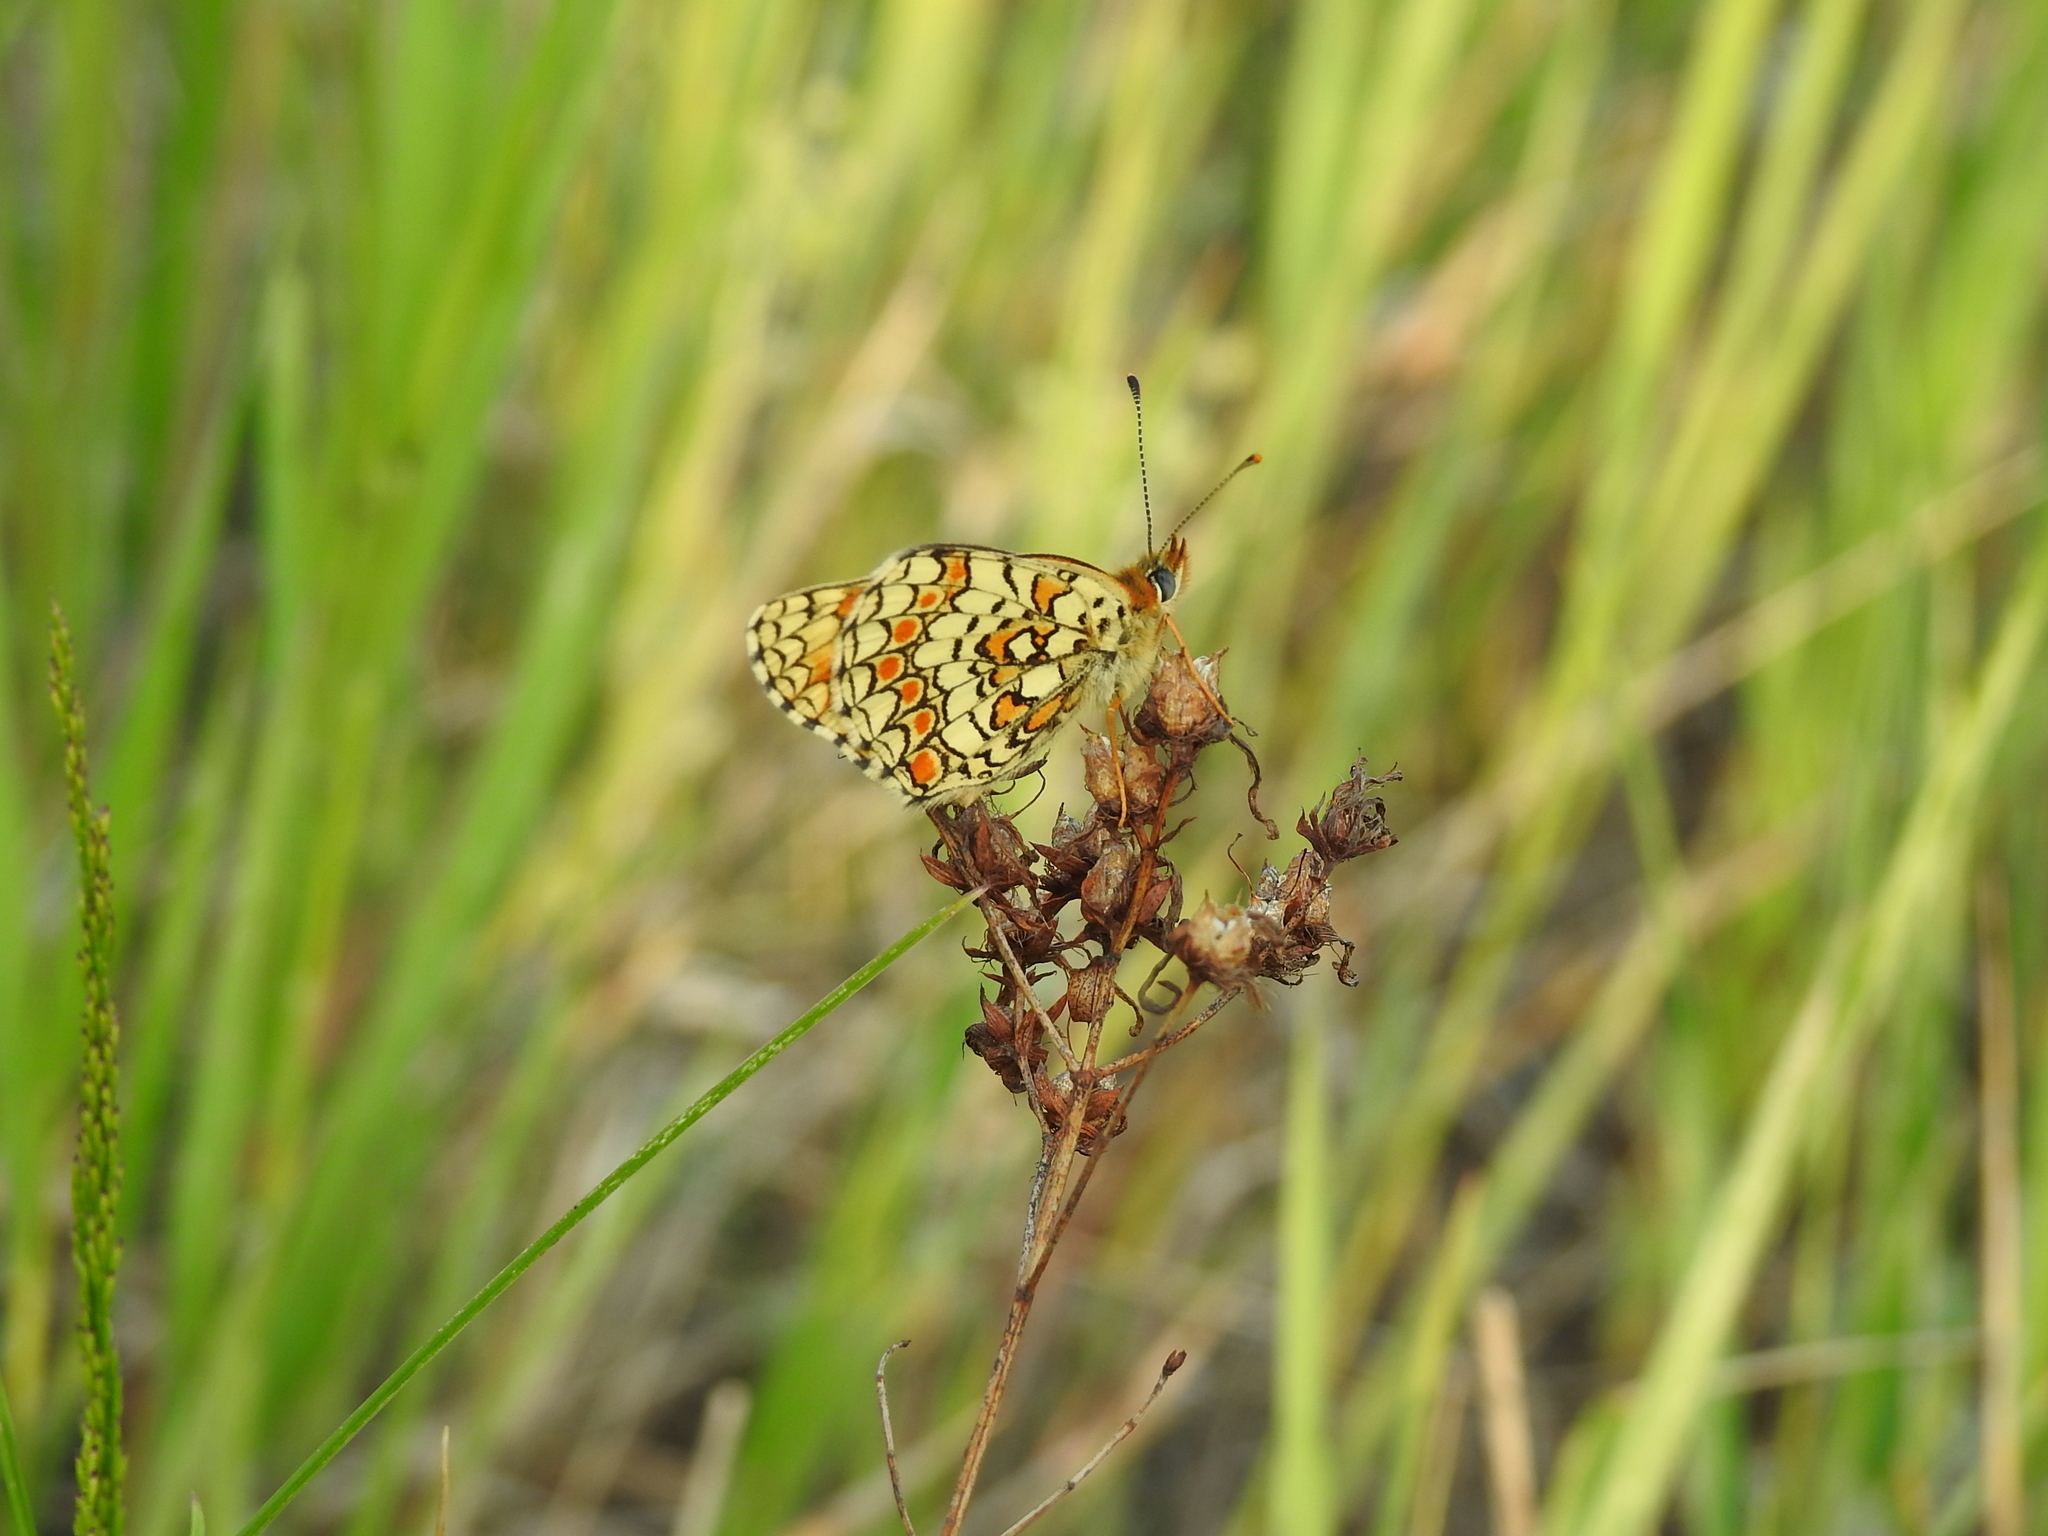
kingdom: Animalia
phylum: Arthropoda
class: Insecta
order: Lepidoptera
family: Nymphalidae
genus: Melitaea
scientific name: Melitaea phoebe
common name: Knapweed fritillary
